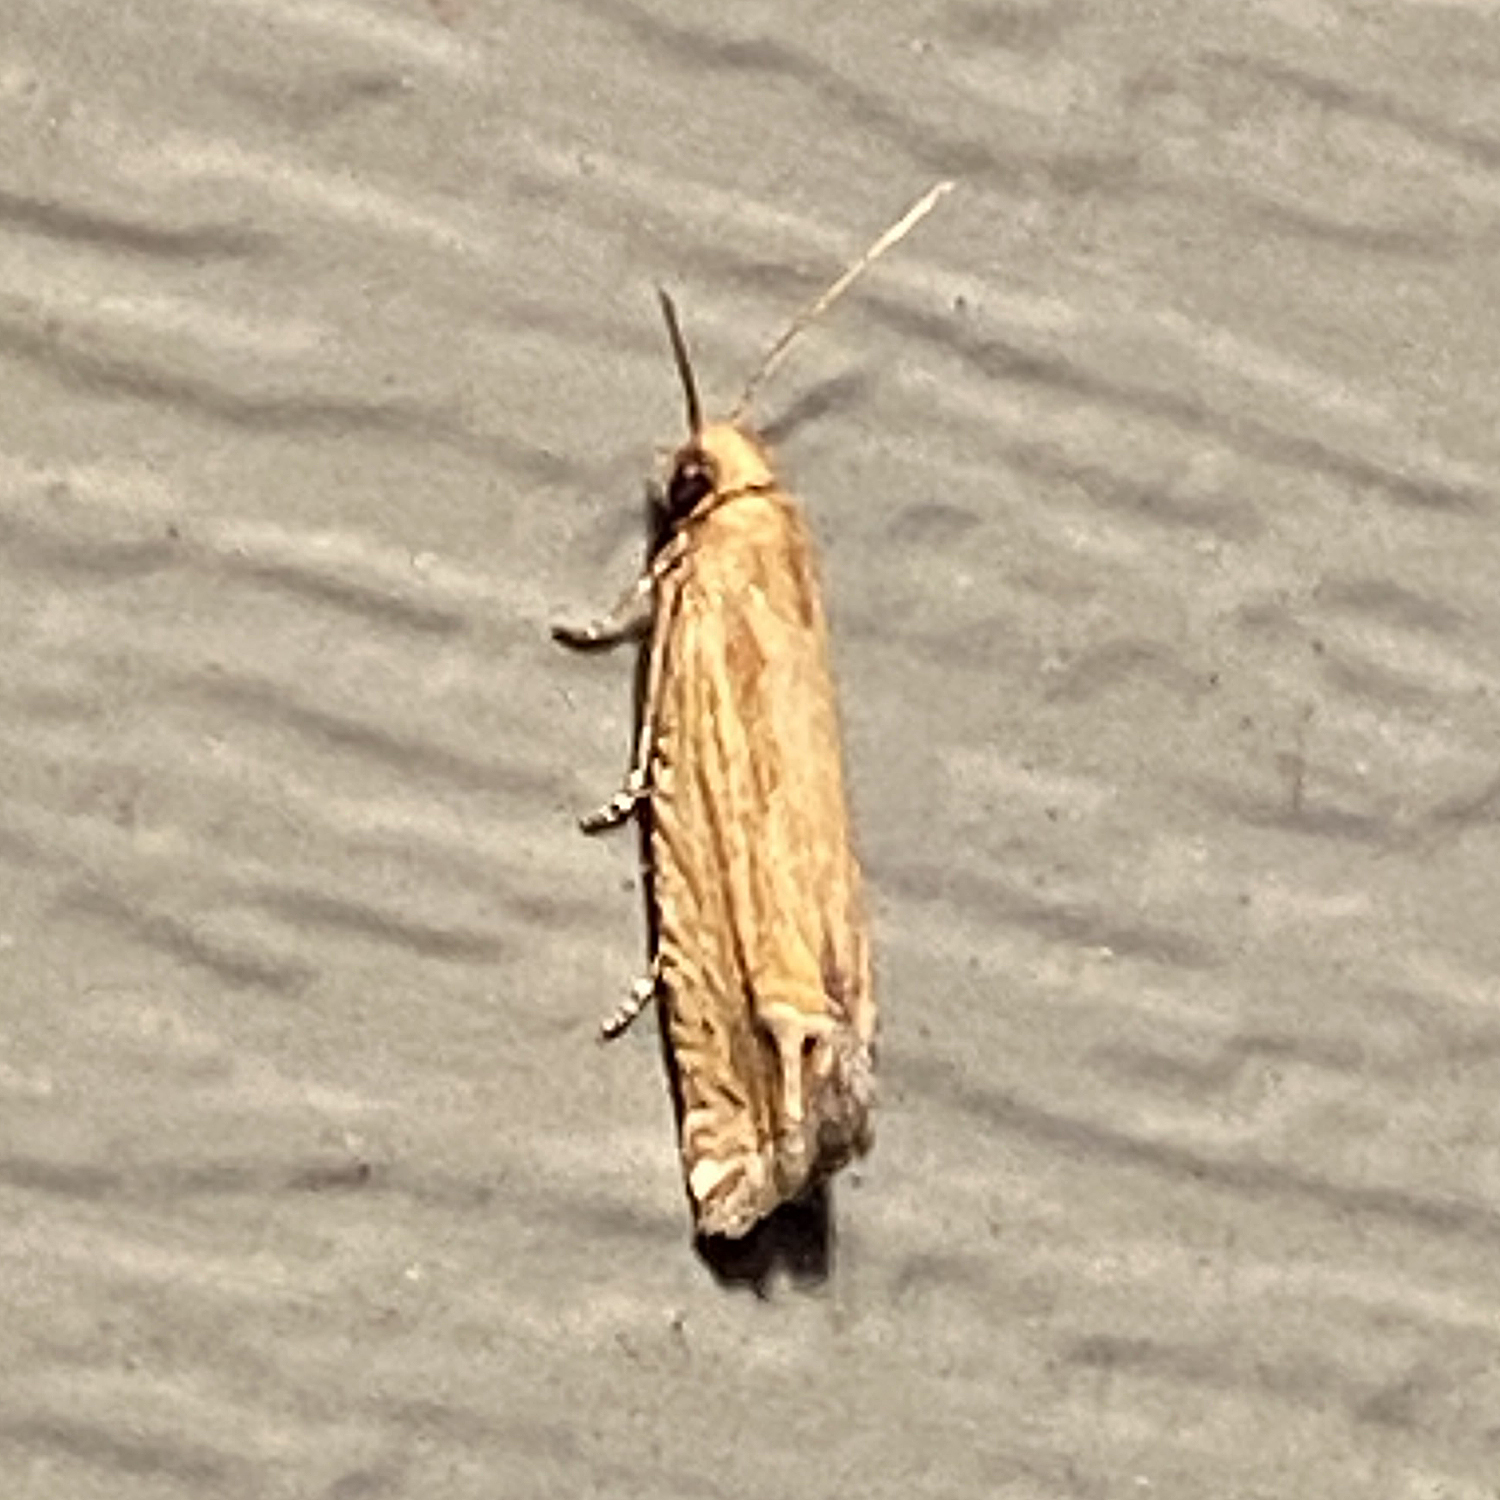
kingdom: Animalia
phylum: Arthropoda
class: Insecta
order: Lepidoptera
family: Tortricidae
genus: Pelochrista
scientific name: Pelochrista cataclystiana
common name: Goldenrod pelochrista moth
